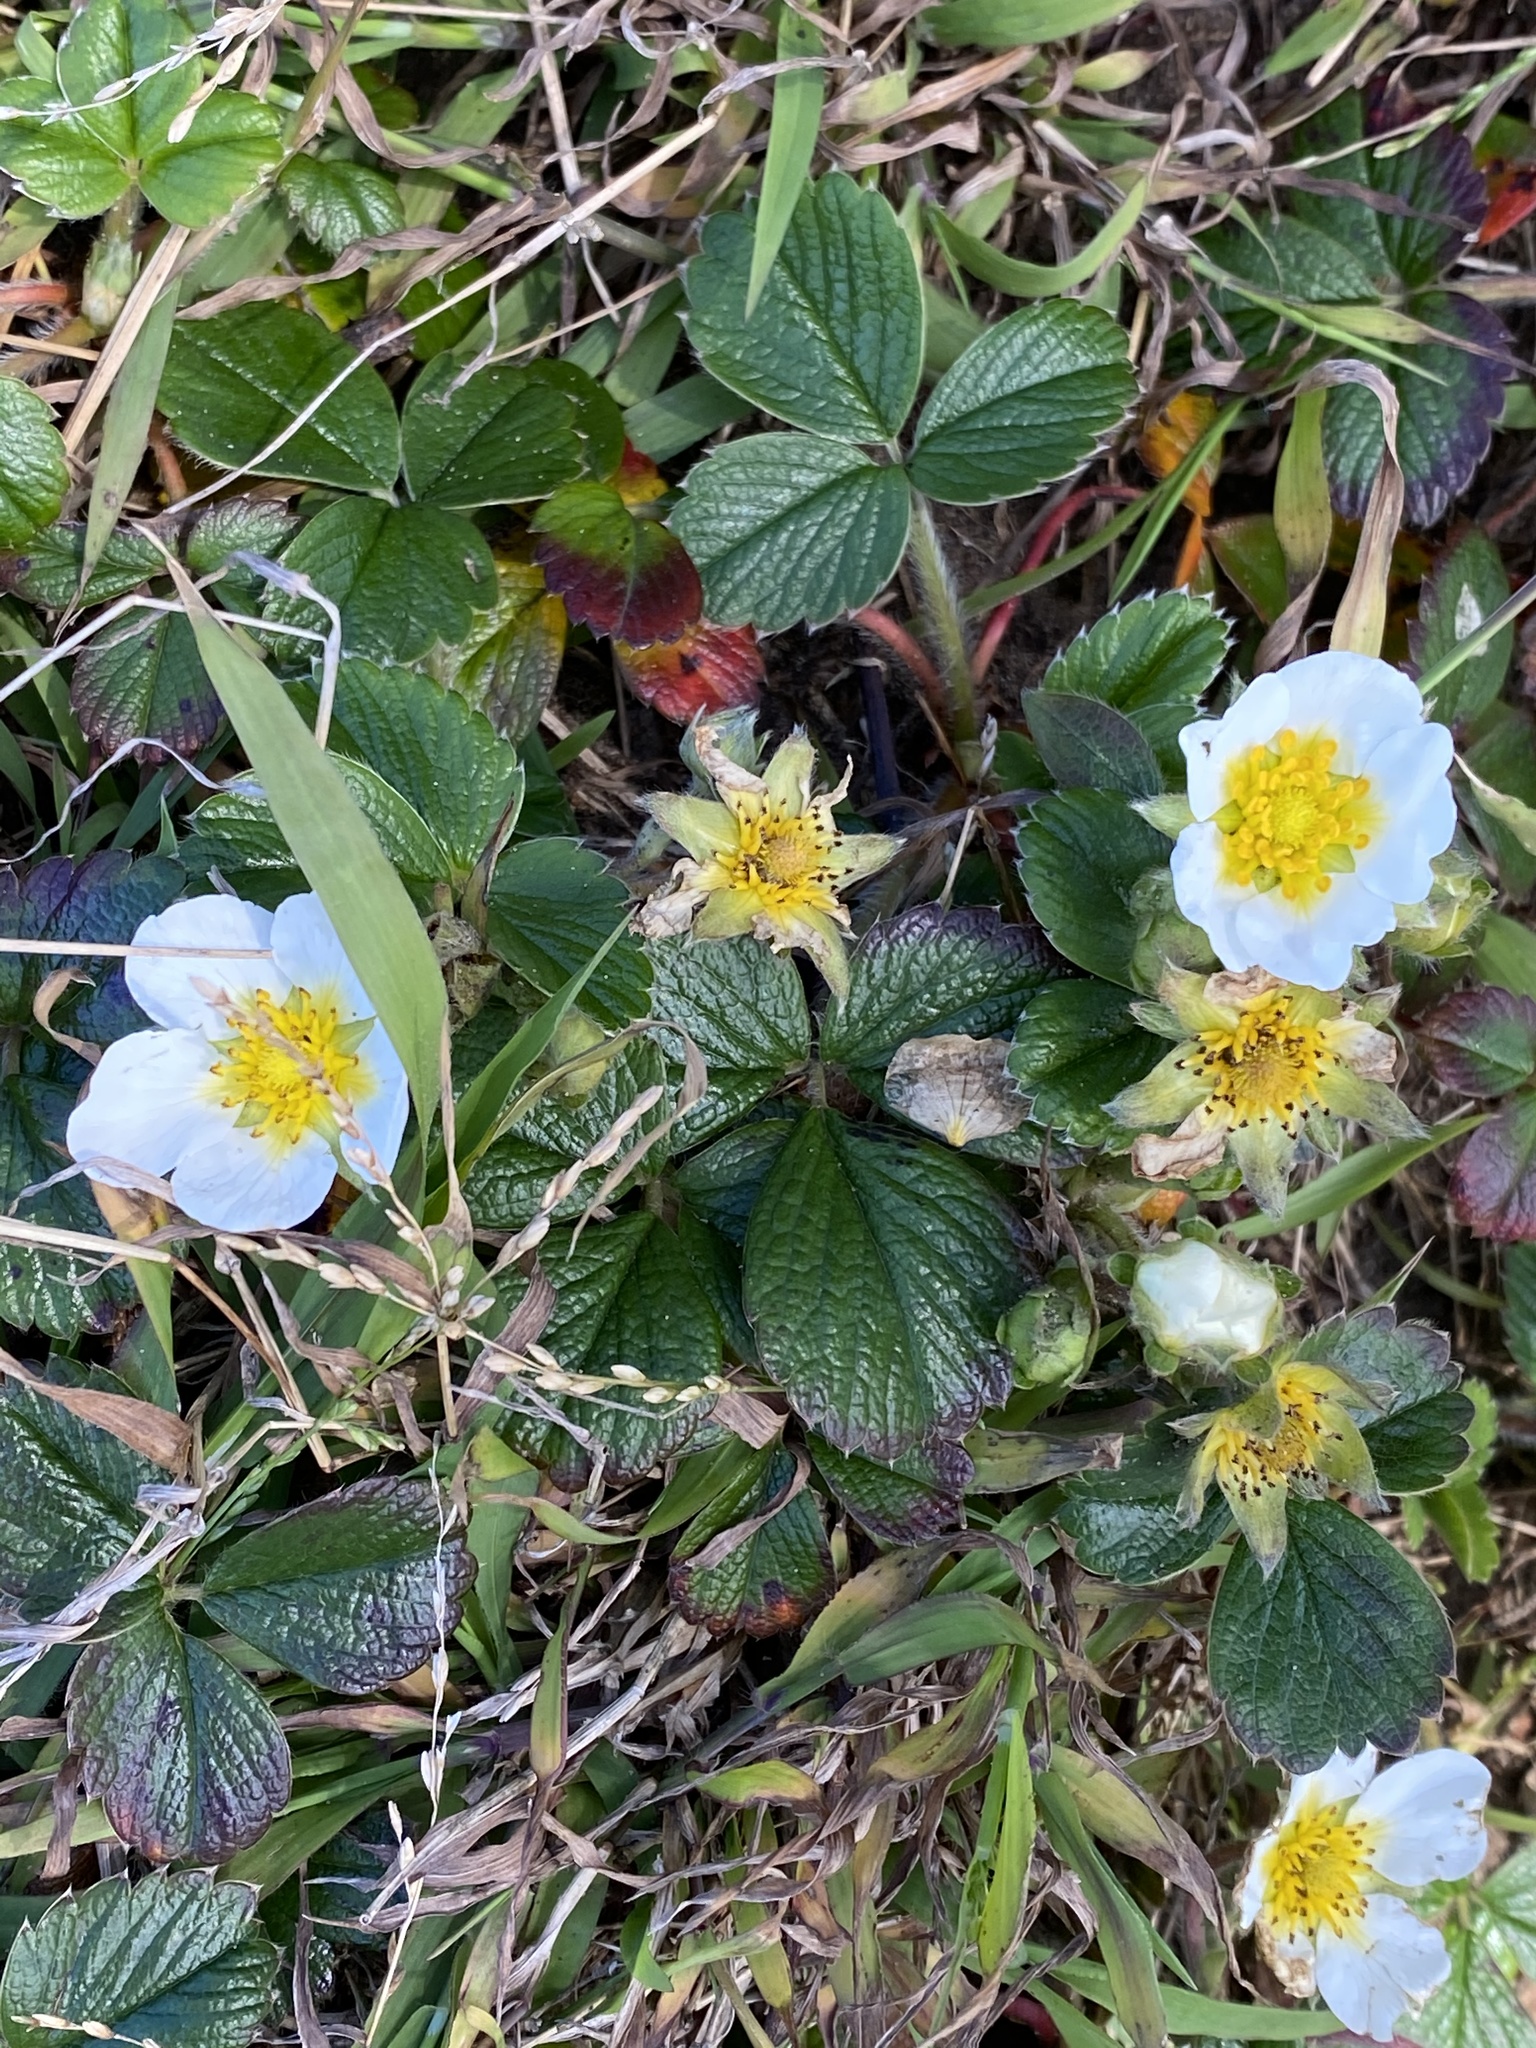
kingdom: Plantae
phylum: Tracheophyta
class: Magnoliopsida
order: Rosales
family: Rosaceae
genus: Fragaria
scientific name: Fragaria chiloensis
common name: Beach strawberry
